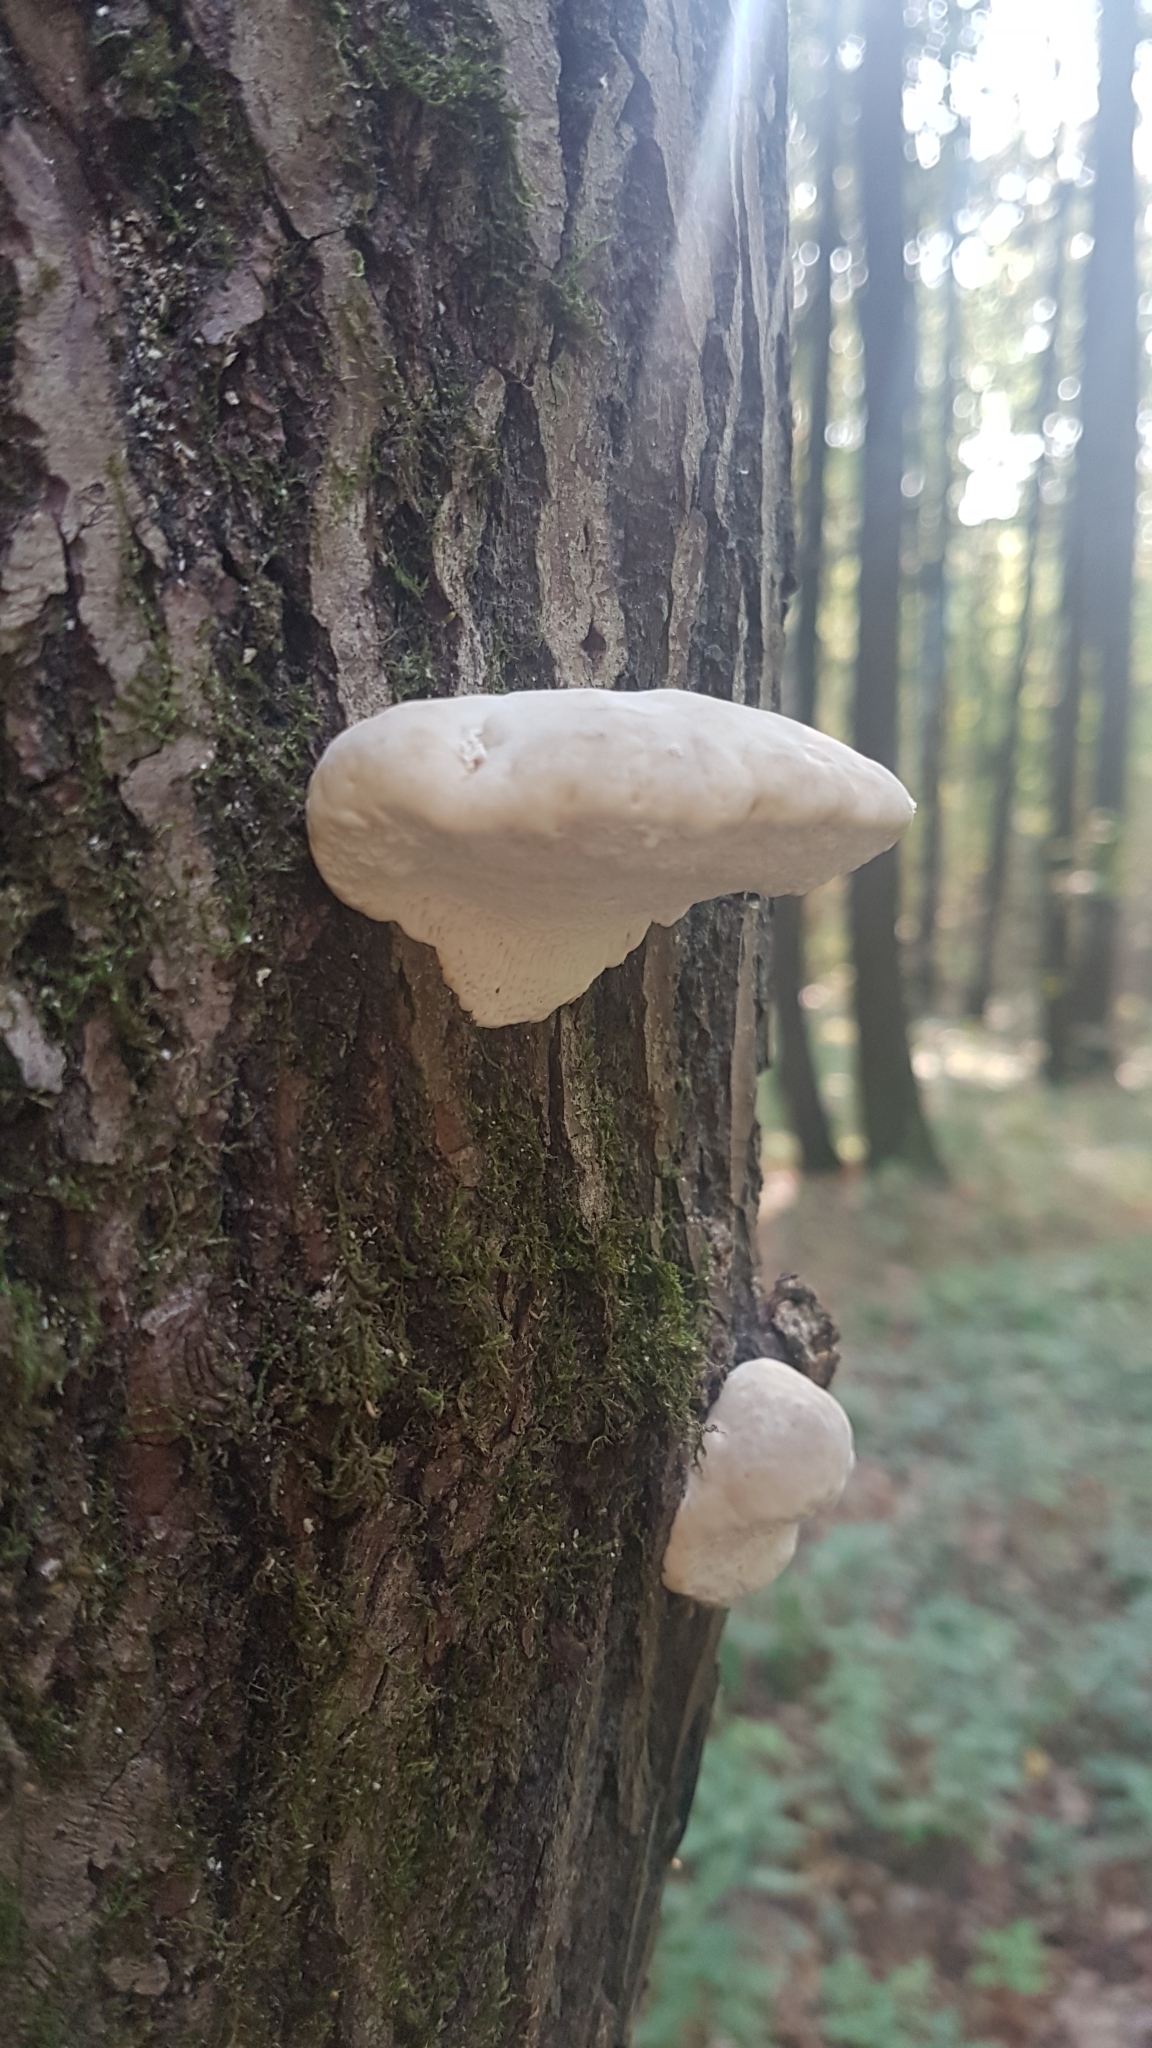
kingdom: Fungi
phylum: Basidiomycota
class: Agaricomycetes
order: Polyporales
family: Fomitopsidaceae
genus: Fomitopsis
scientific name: Fomitopsis betulina
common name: Birch polypore
